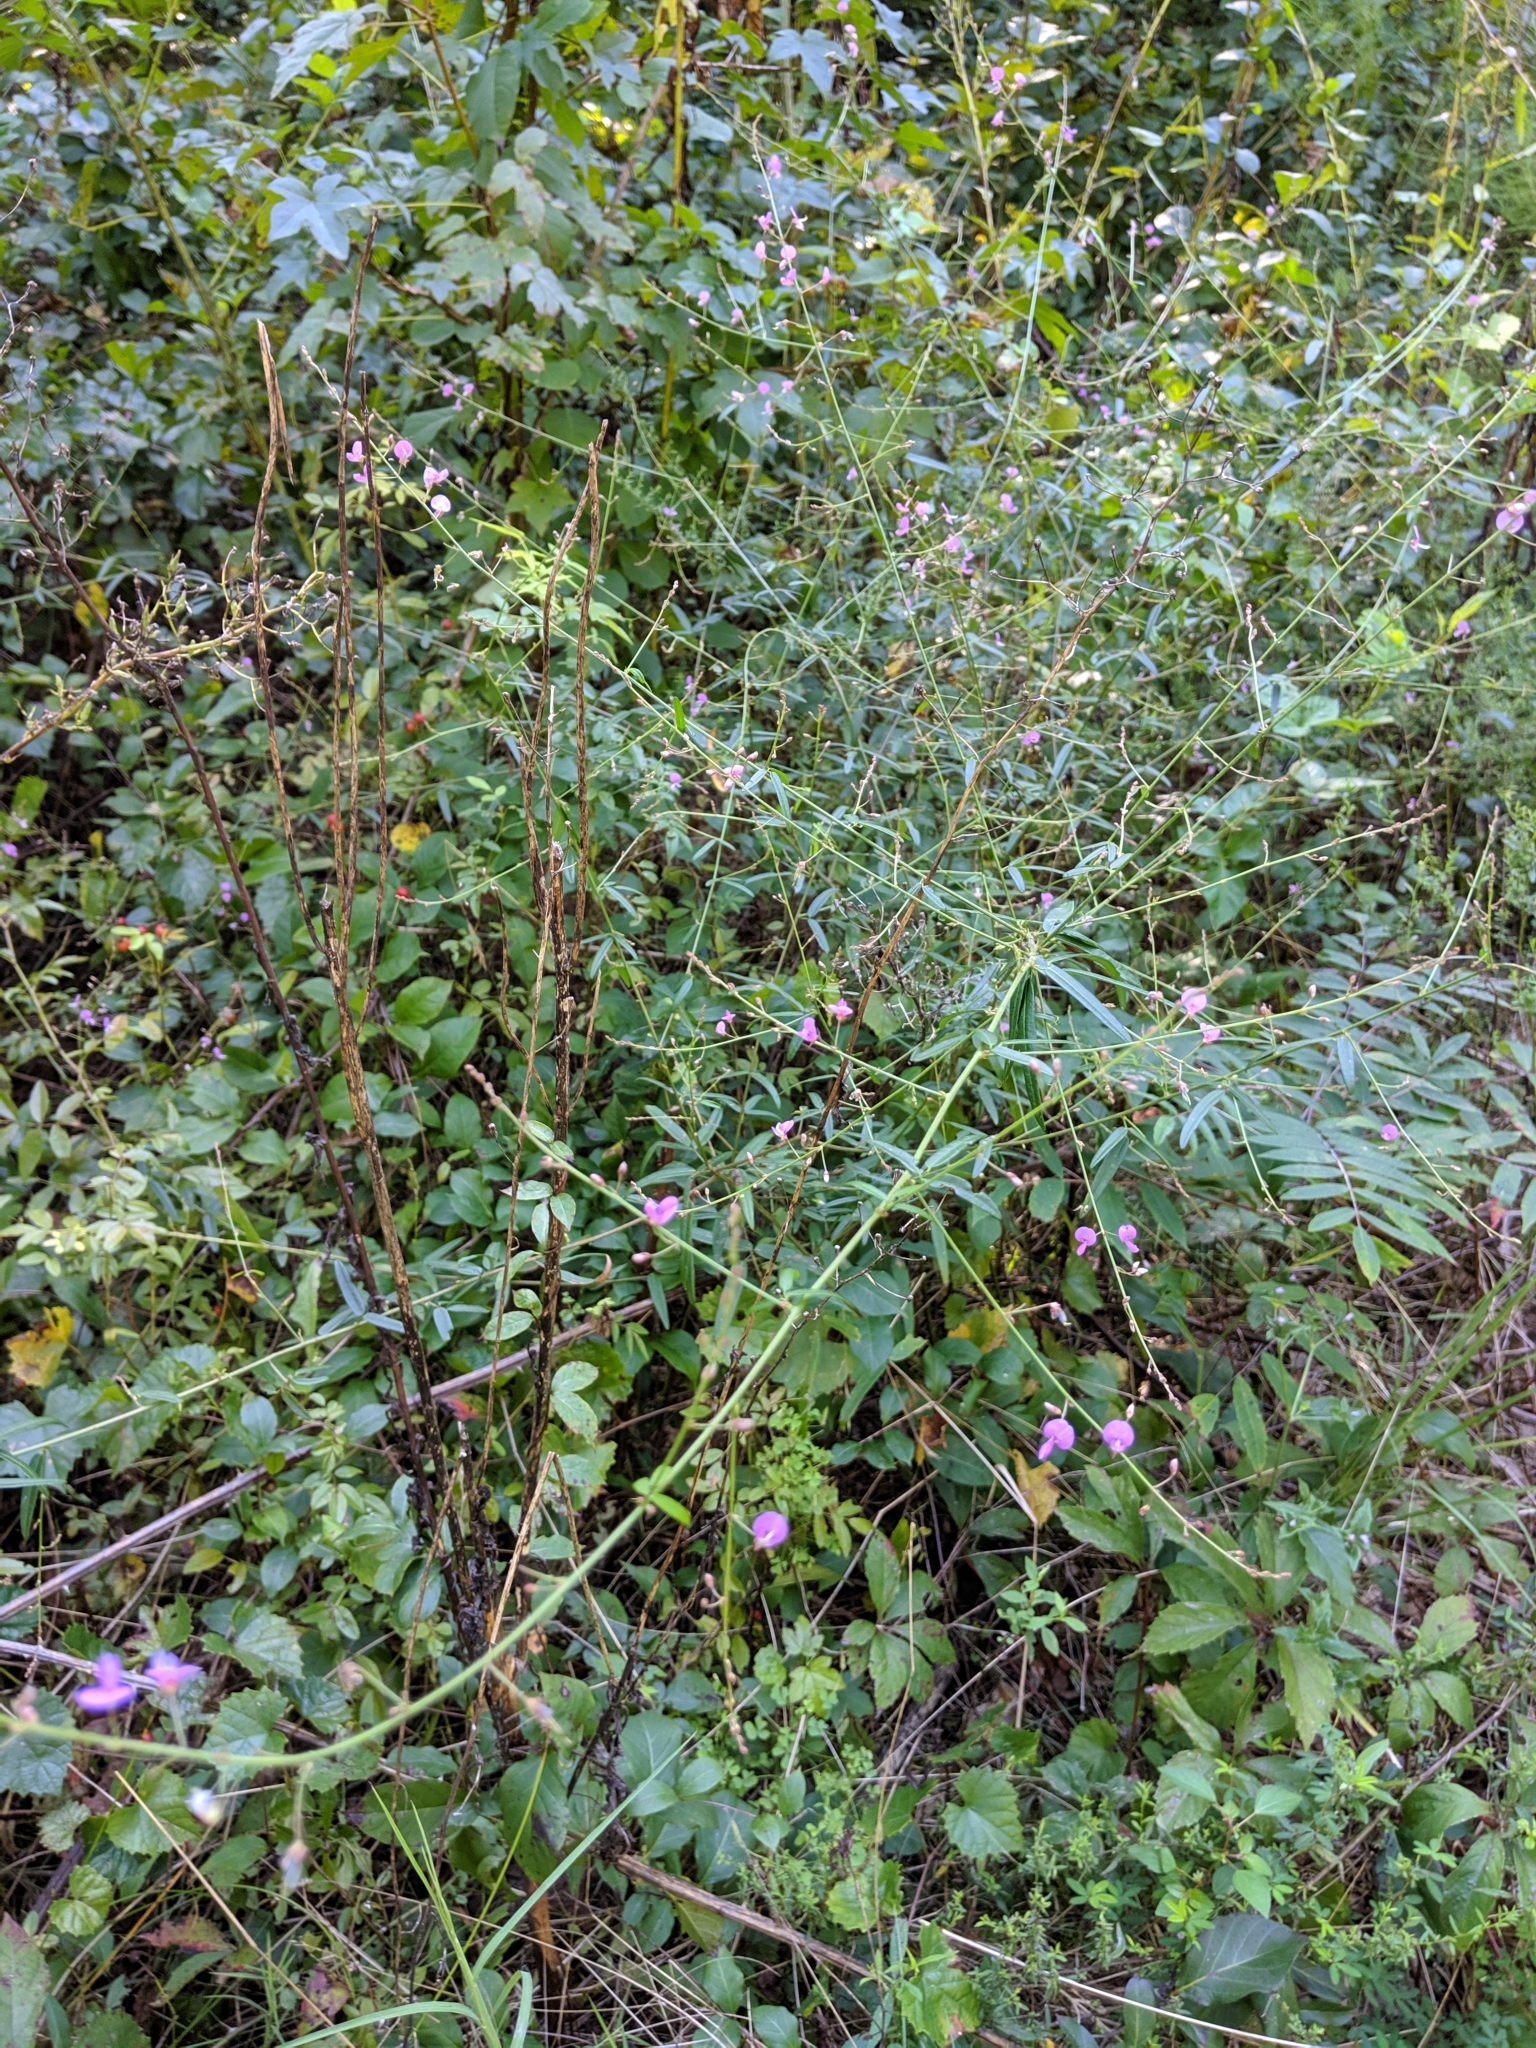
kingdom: Plantae
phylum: Tracheophyta
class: Magnoliopsida
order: Fabales
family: Fabaceae
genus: Desmodium
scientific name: Desmodium paniculatum
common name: Panicled tick-clover
